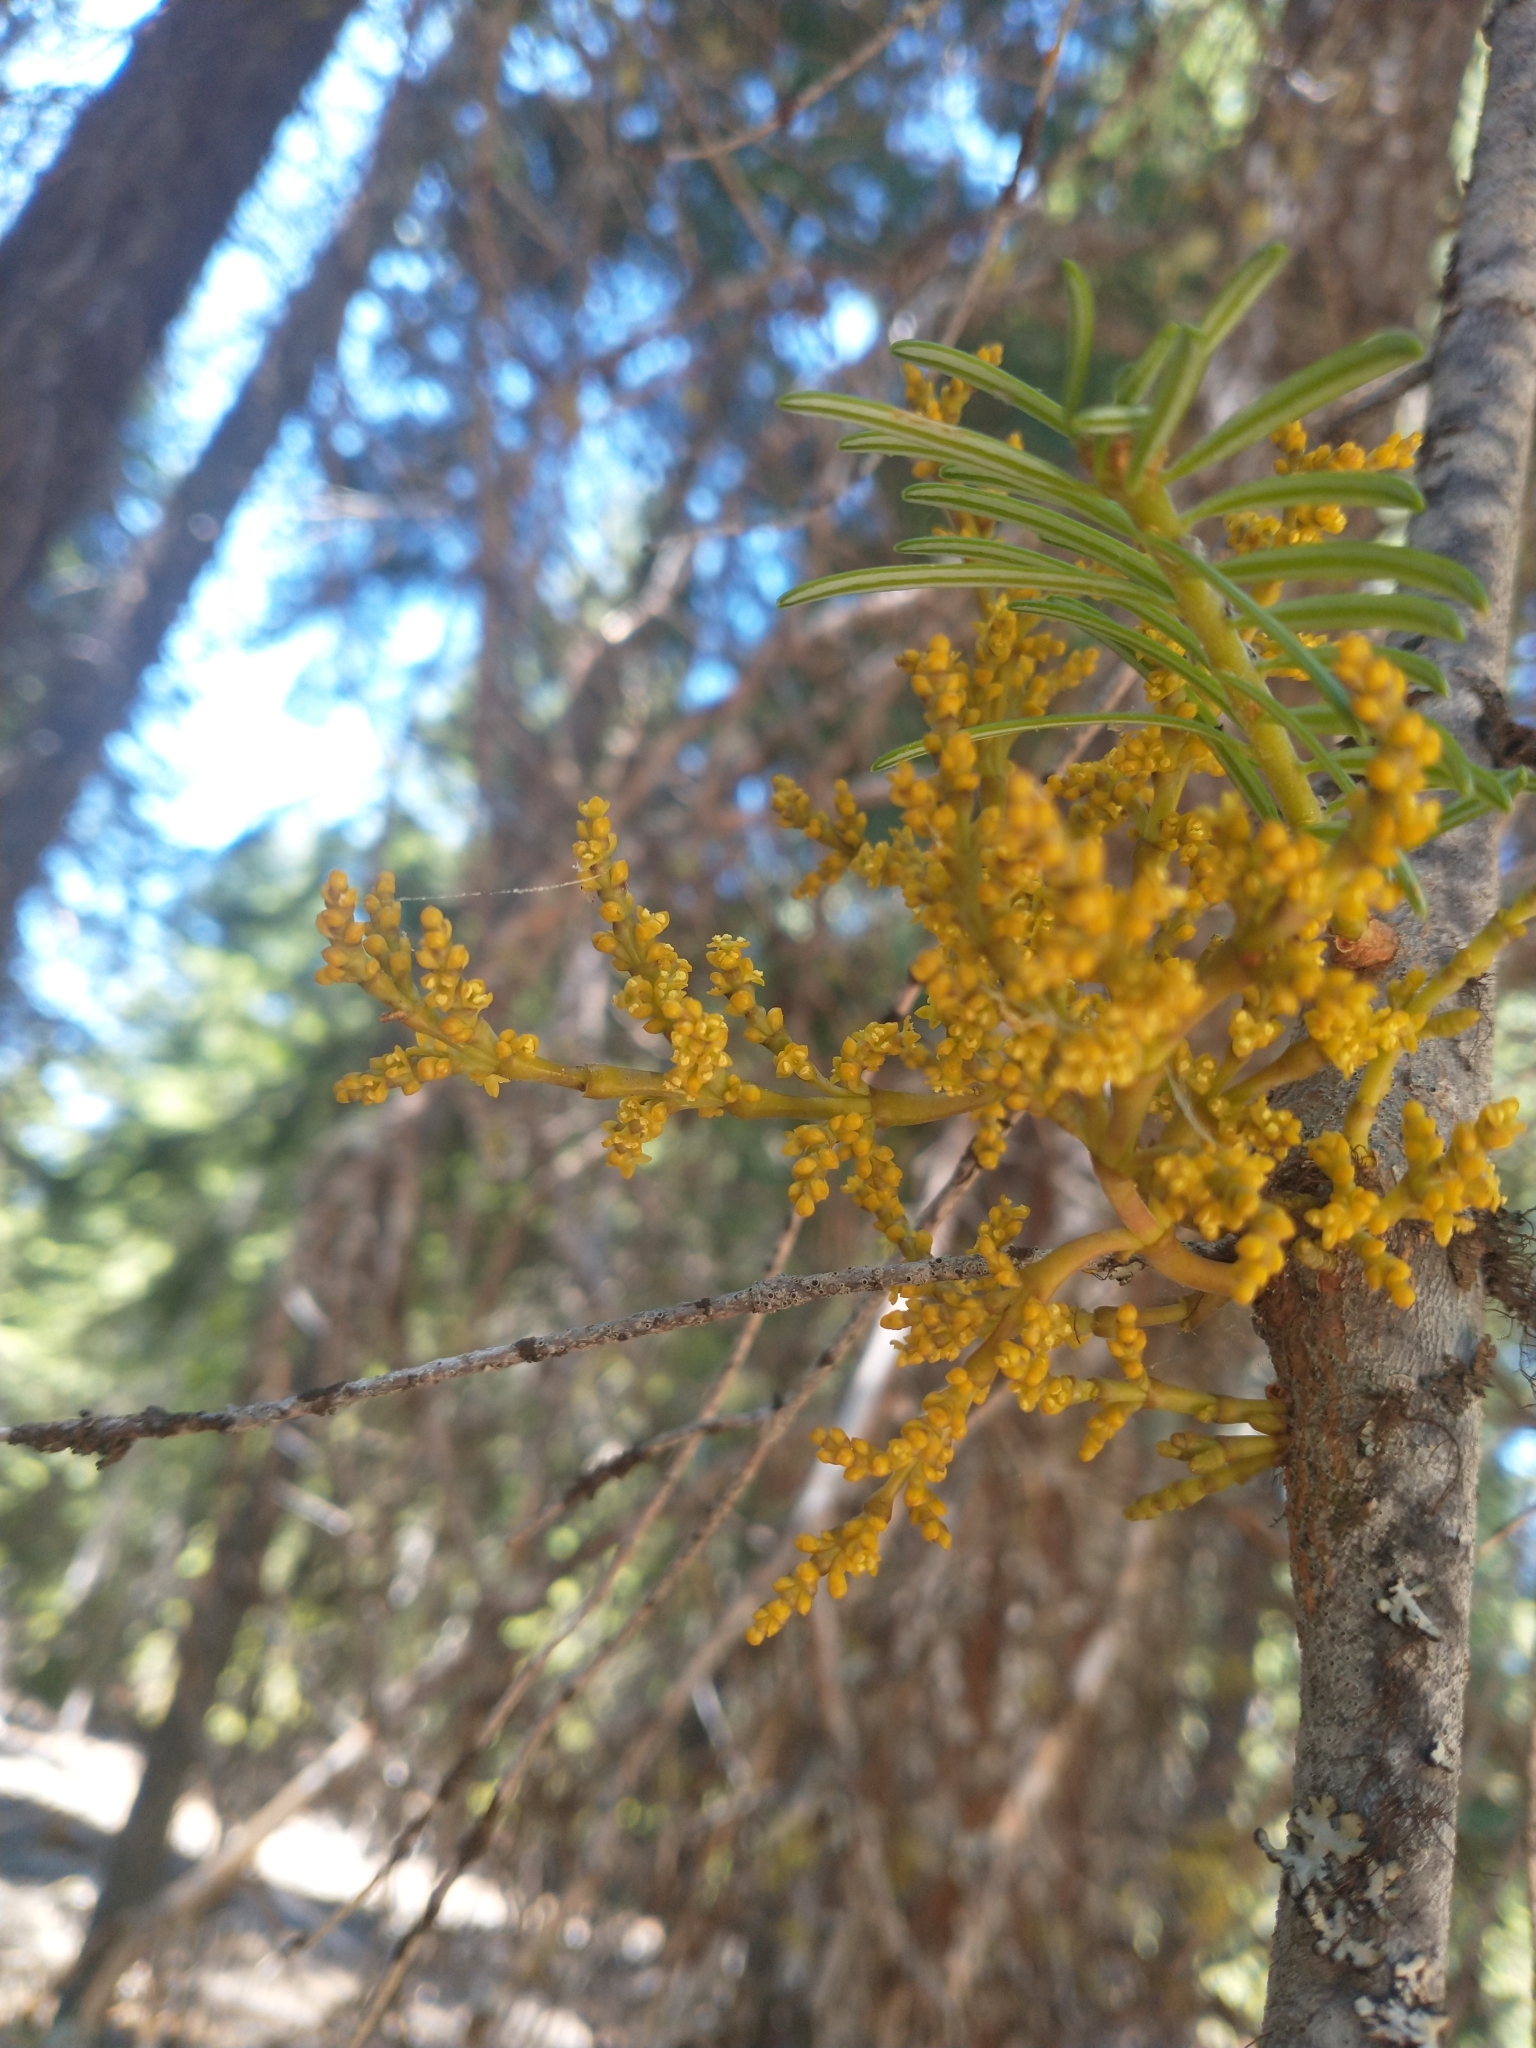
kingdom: Plantae
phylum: Tracheophyta
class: Magnoliopsida
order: Santalales
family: Viscaceae
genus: Arceuthobium
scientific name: Arceuthobium abietinum
